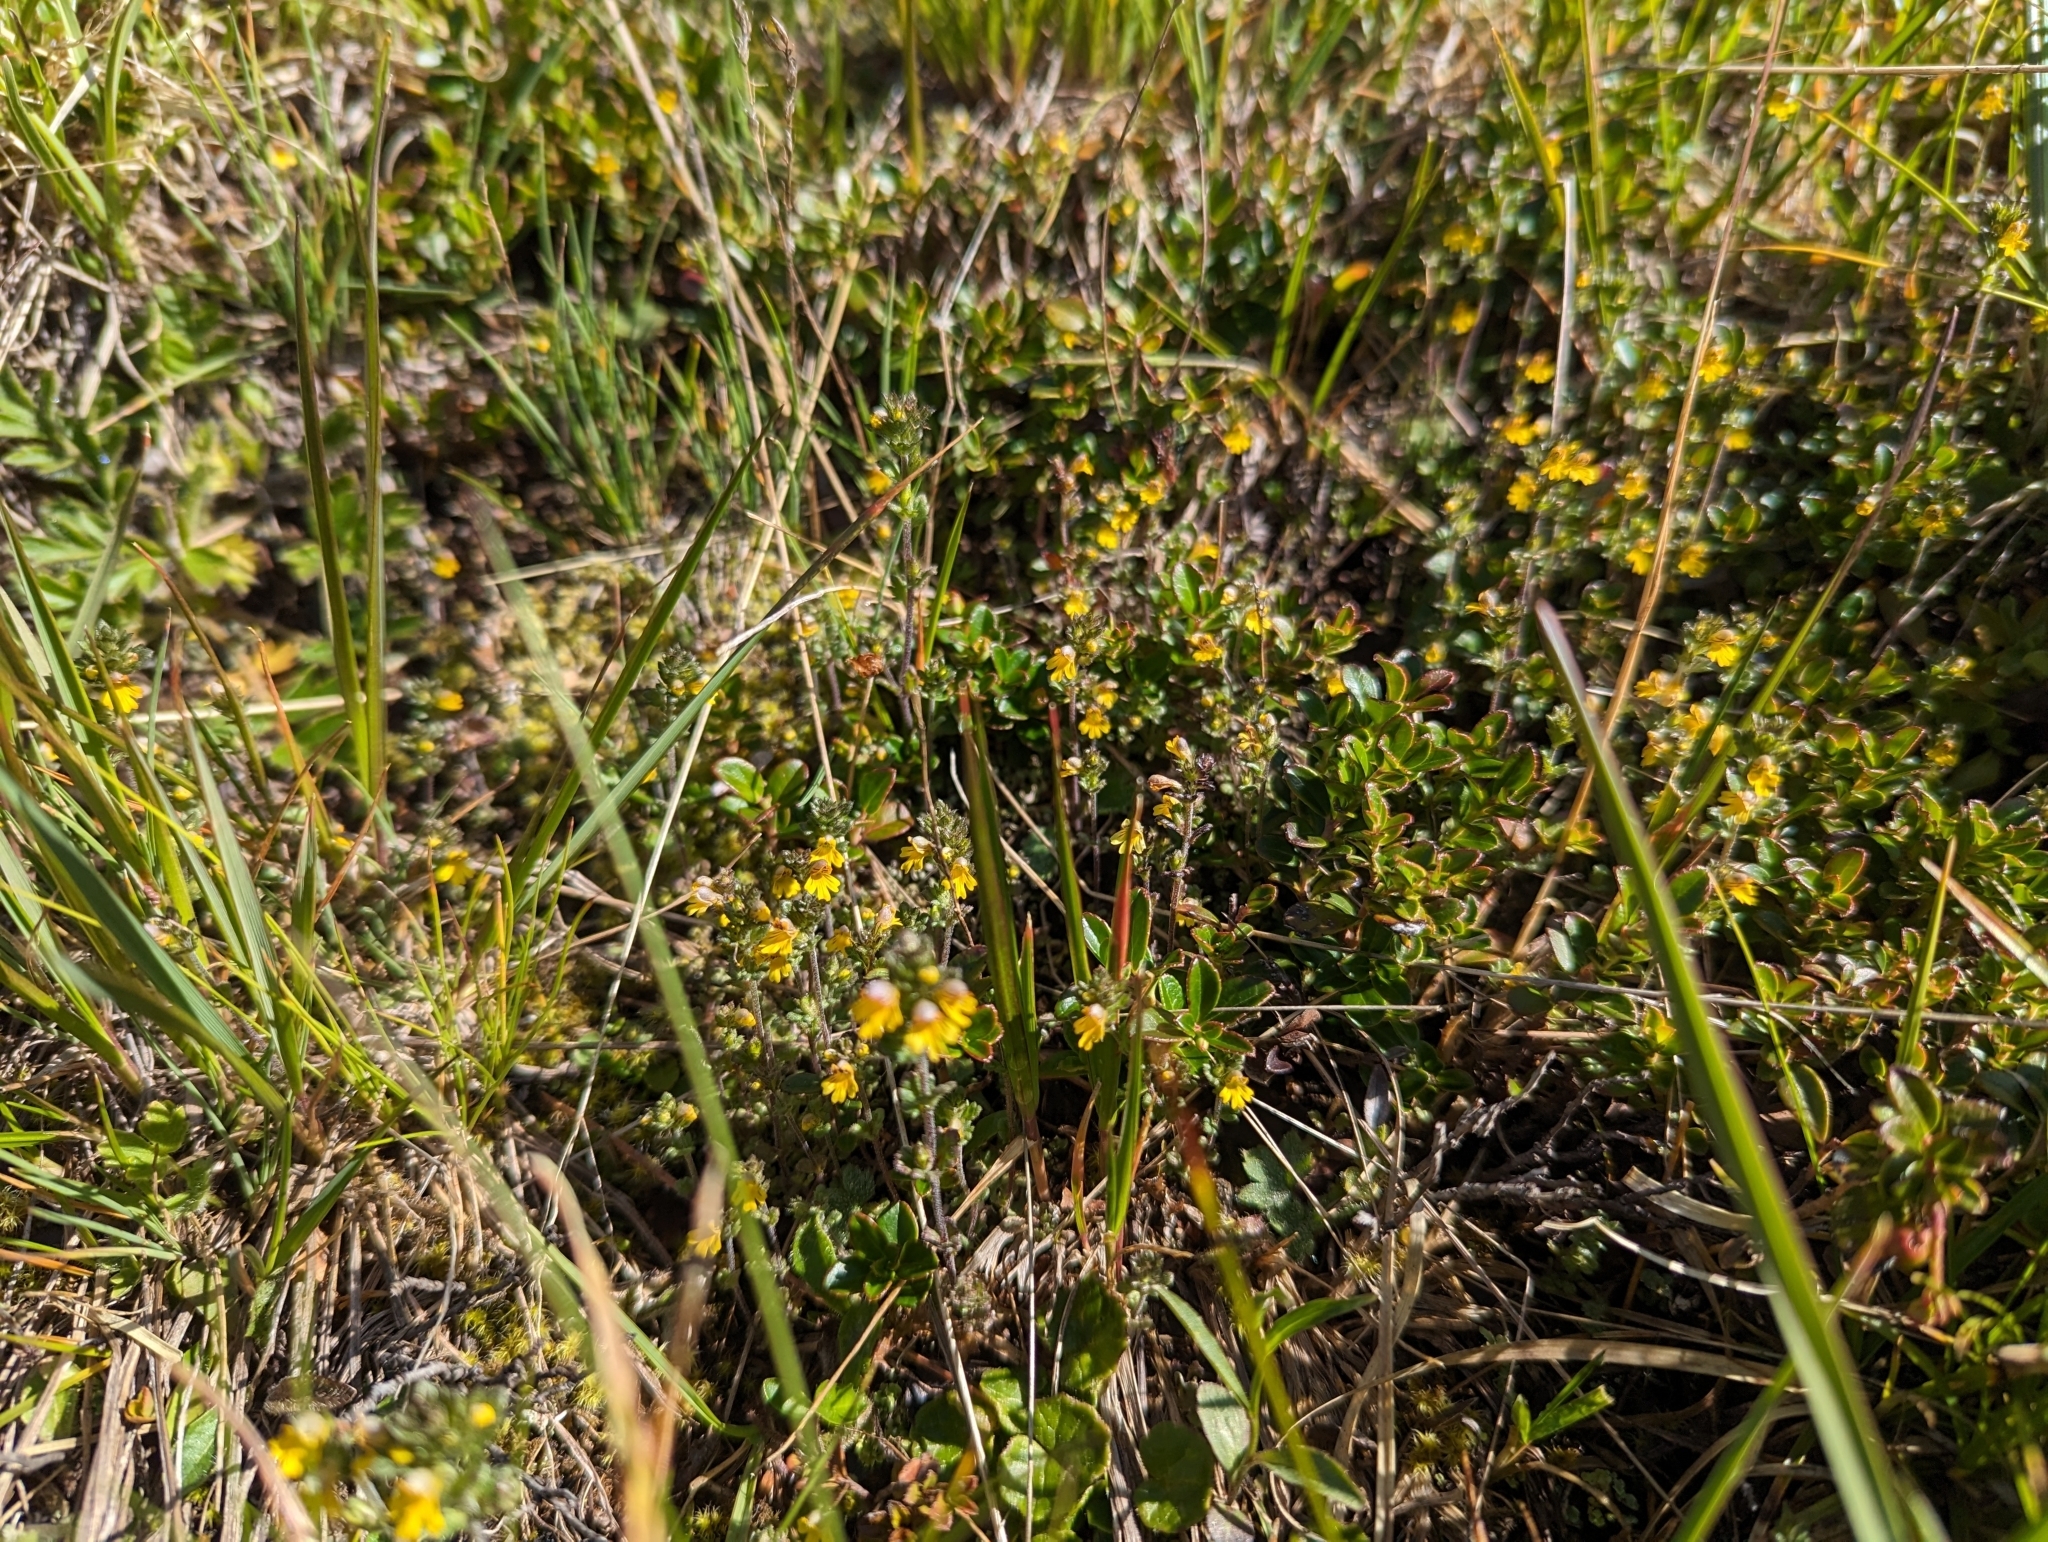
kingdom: Plantae
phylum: Tracheophyta
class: Magnoliopsida
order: Lamiales
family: Orobanchaceae
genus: Euphrasia
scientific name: Euphrasia minima
